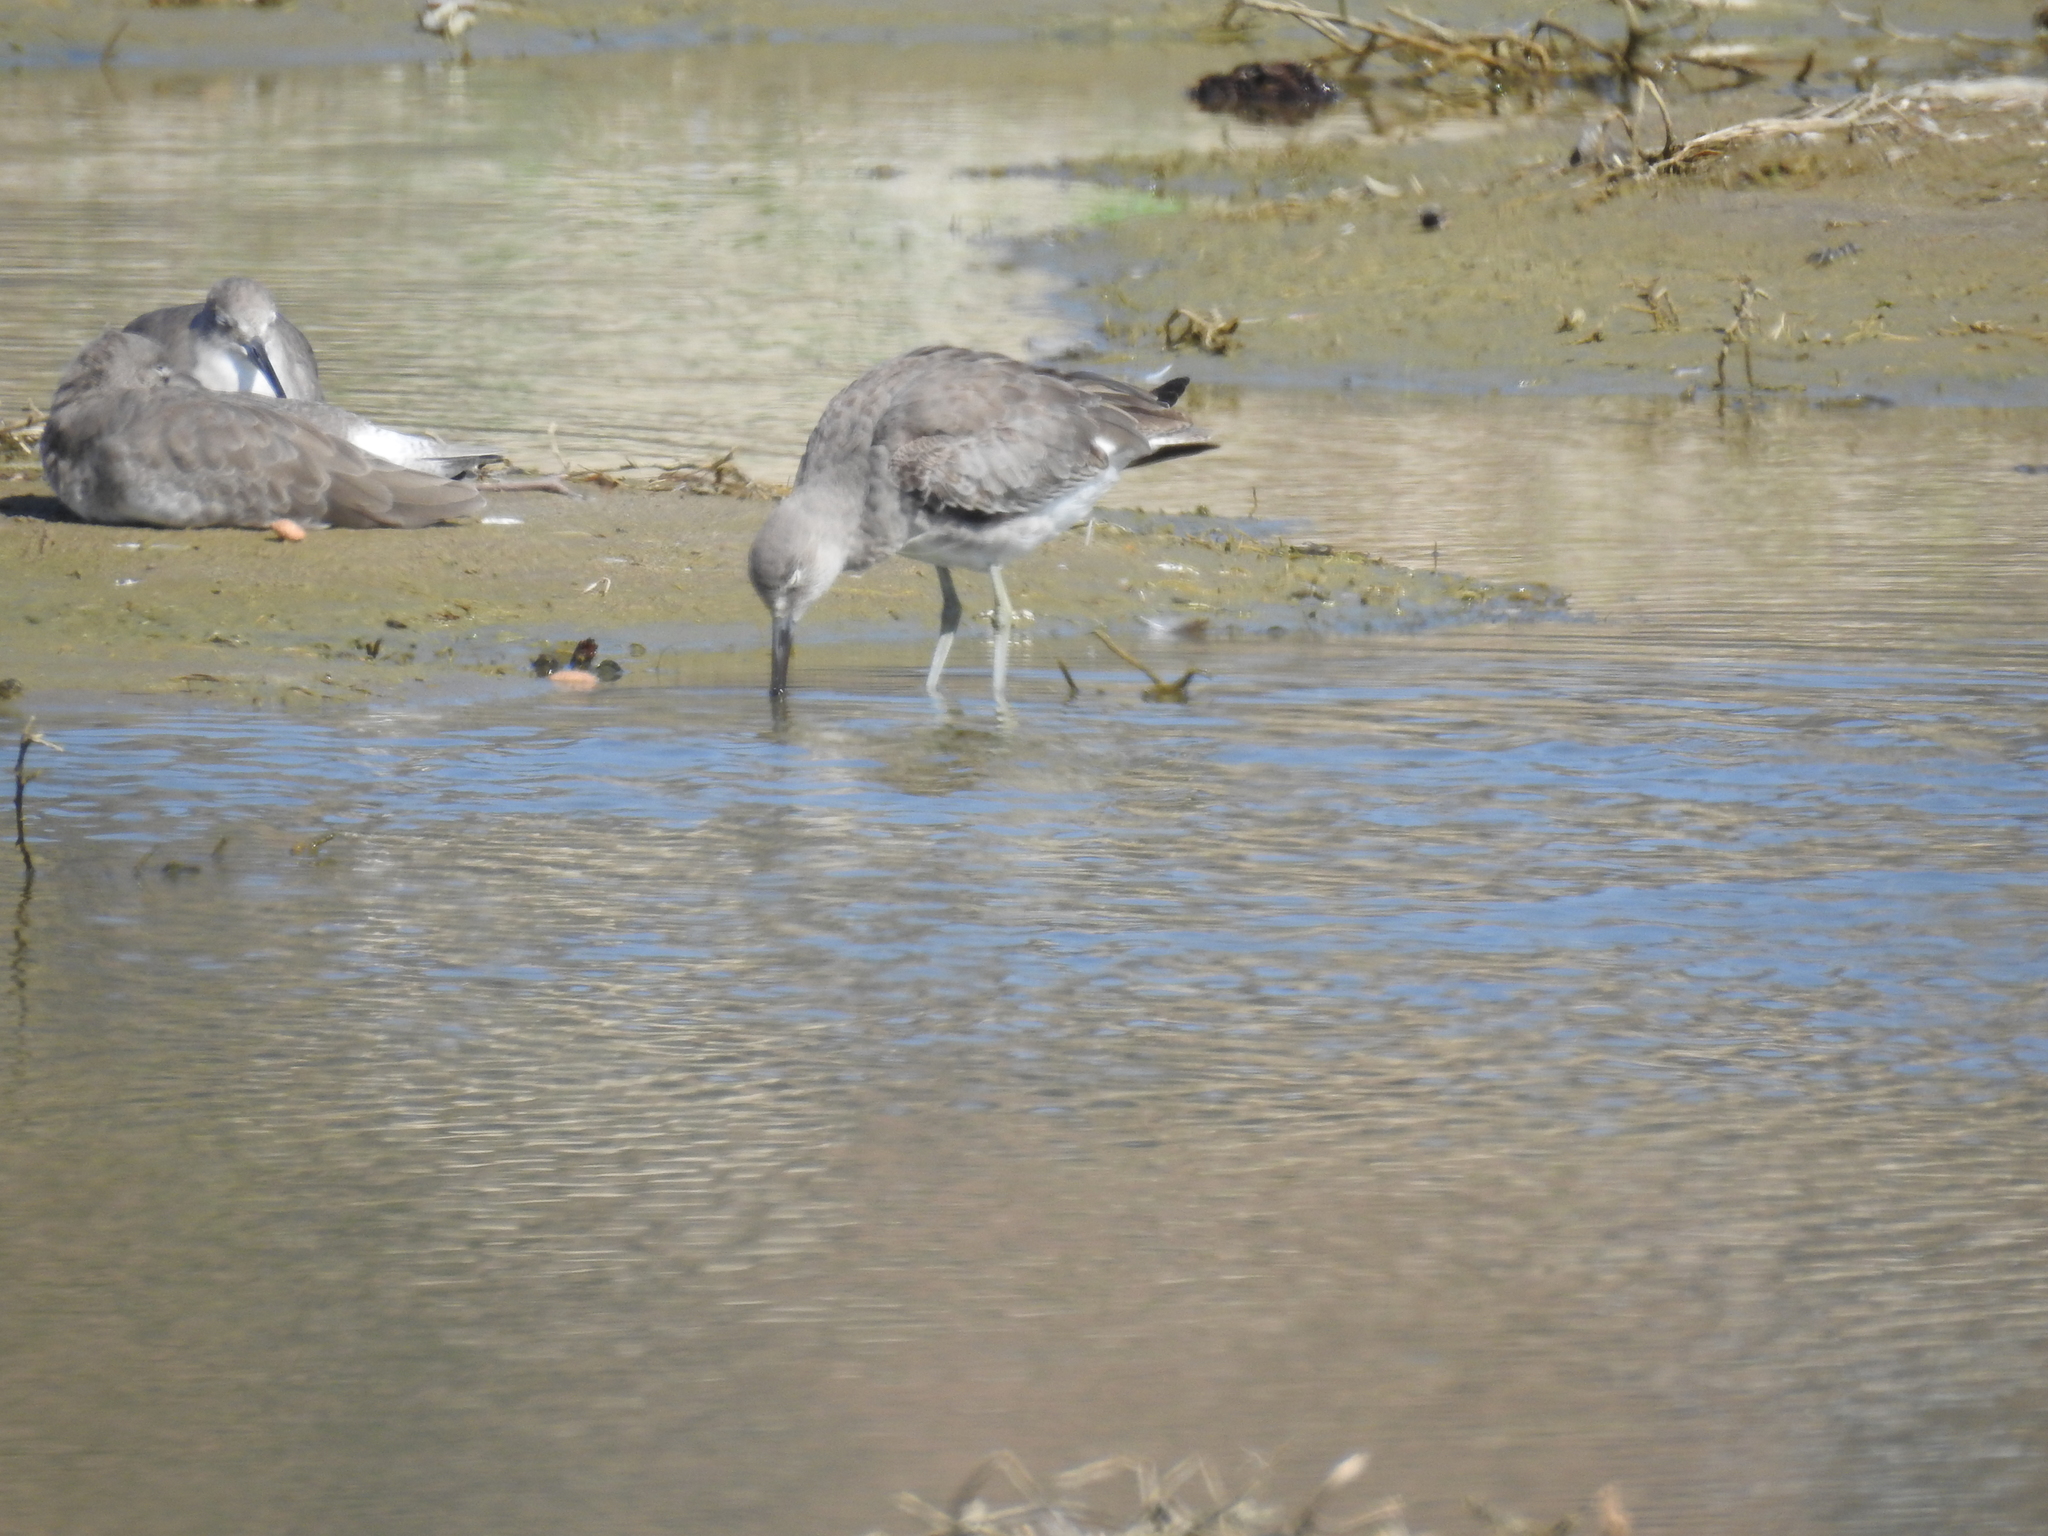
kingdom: Animalia
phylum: Chordata
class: Aves
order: Charadriiformes
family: Scolopacidae
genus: Tringa
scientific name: Tringa semipalmata
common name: Willet
